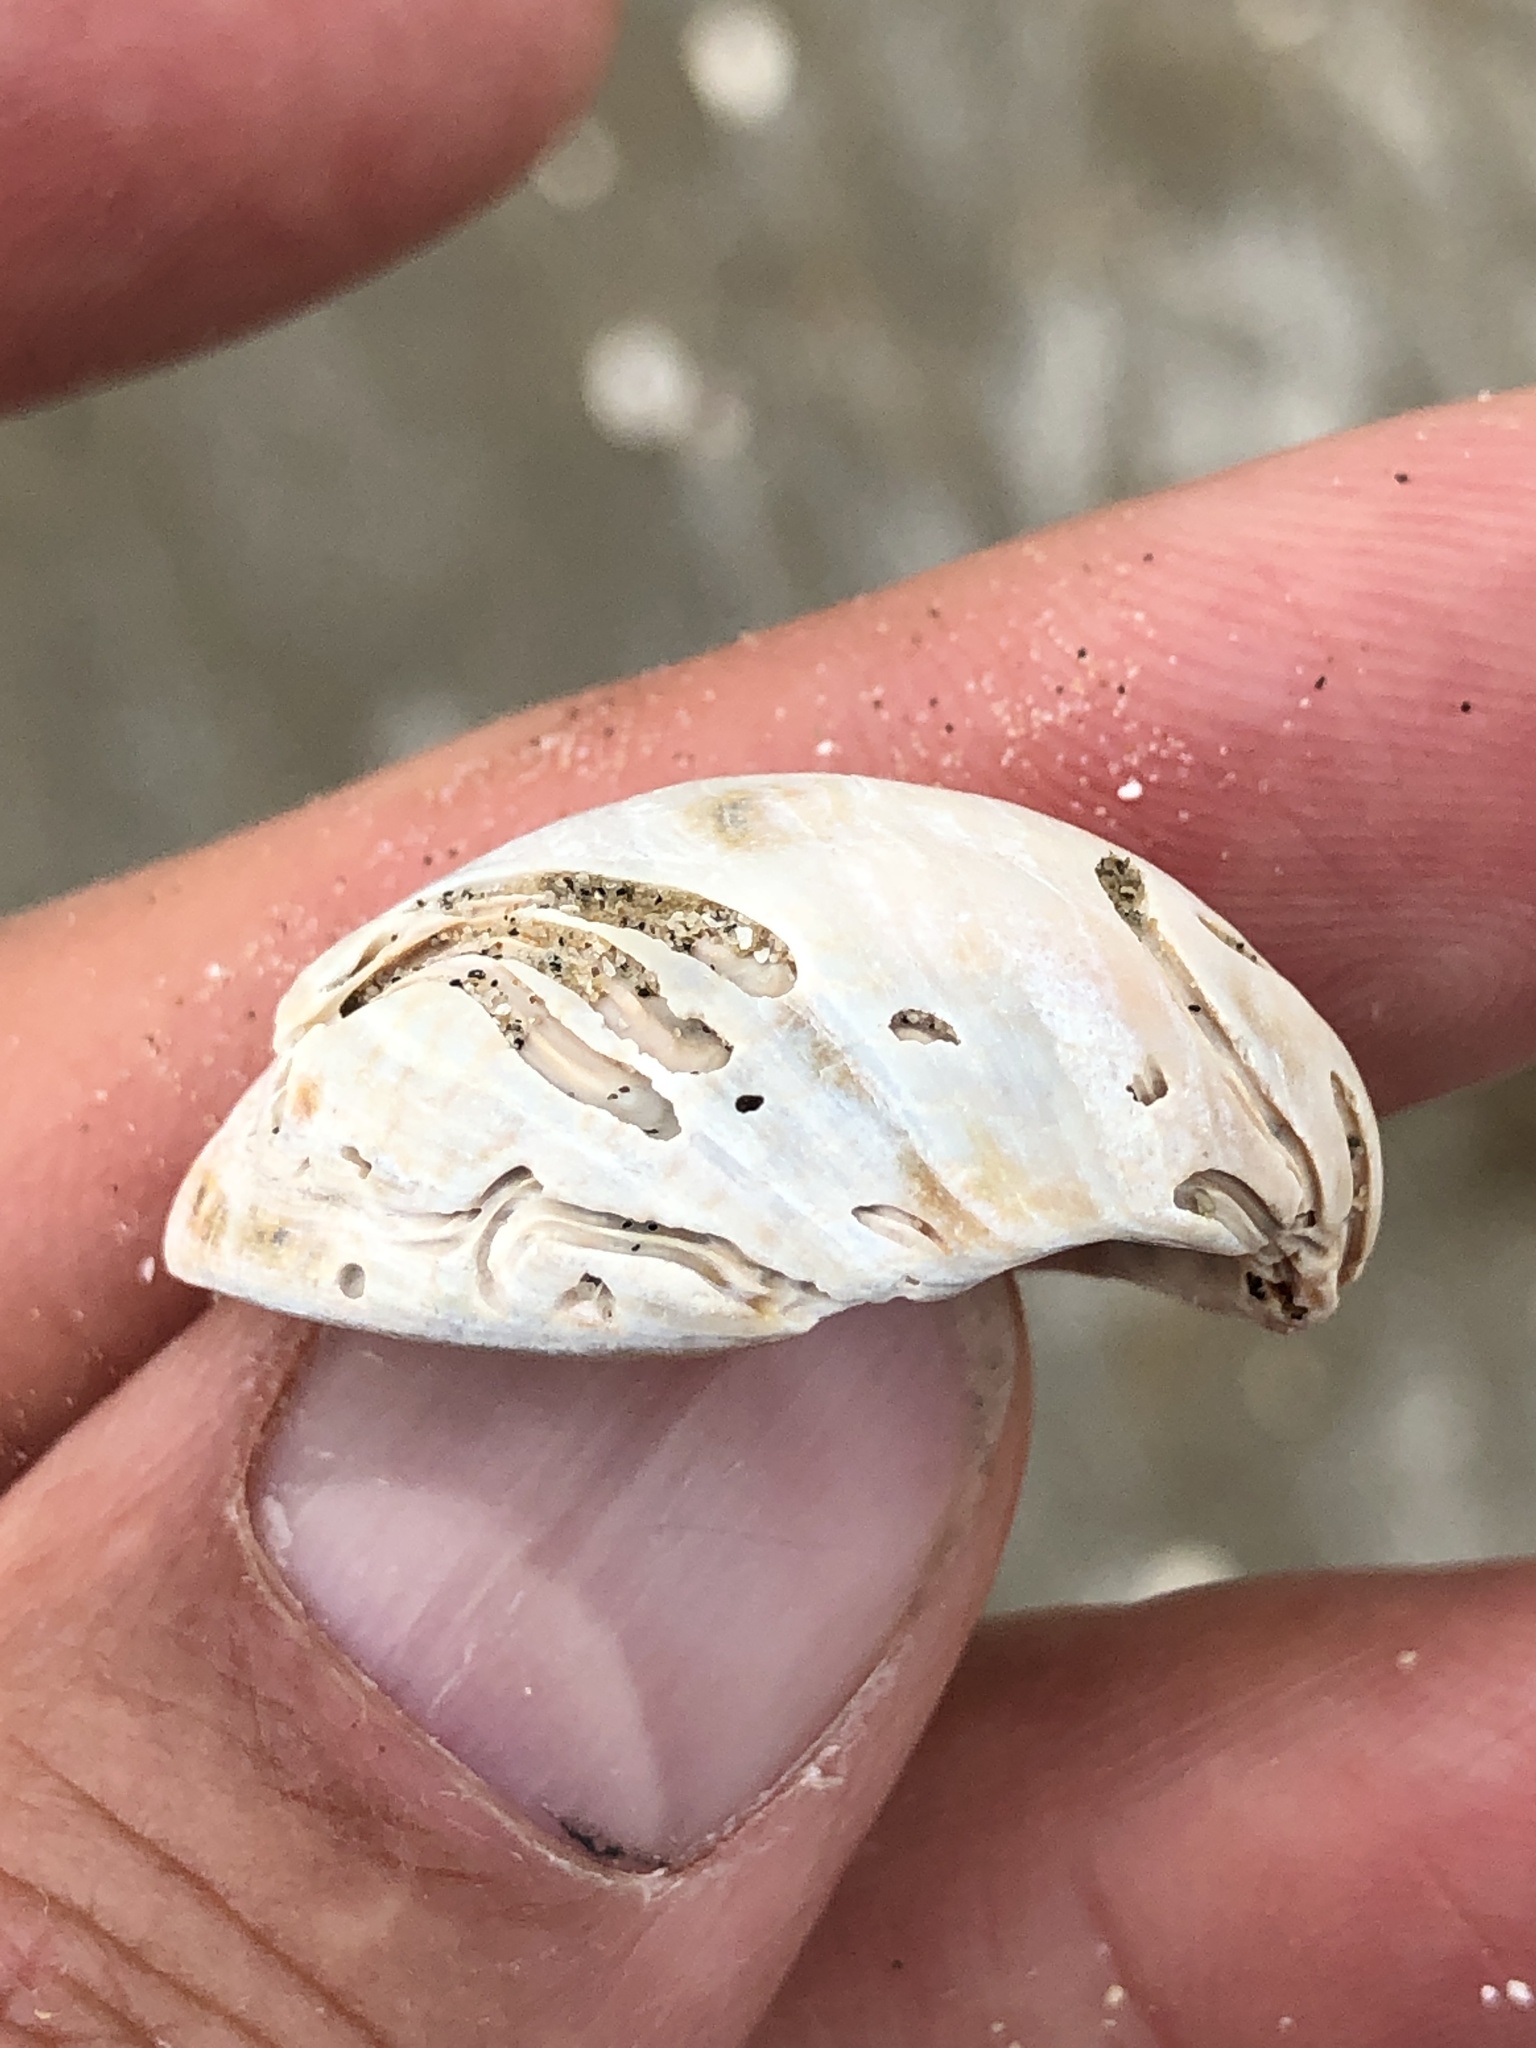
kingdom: Animalia
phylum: Mollusca
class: Gastropoda
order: Littorinimorpha
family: Calyptraeidae
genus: Crepidula
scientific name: Crepidula fornicata
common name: Slipper limpet
